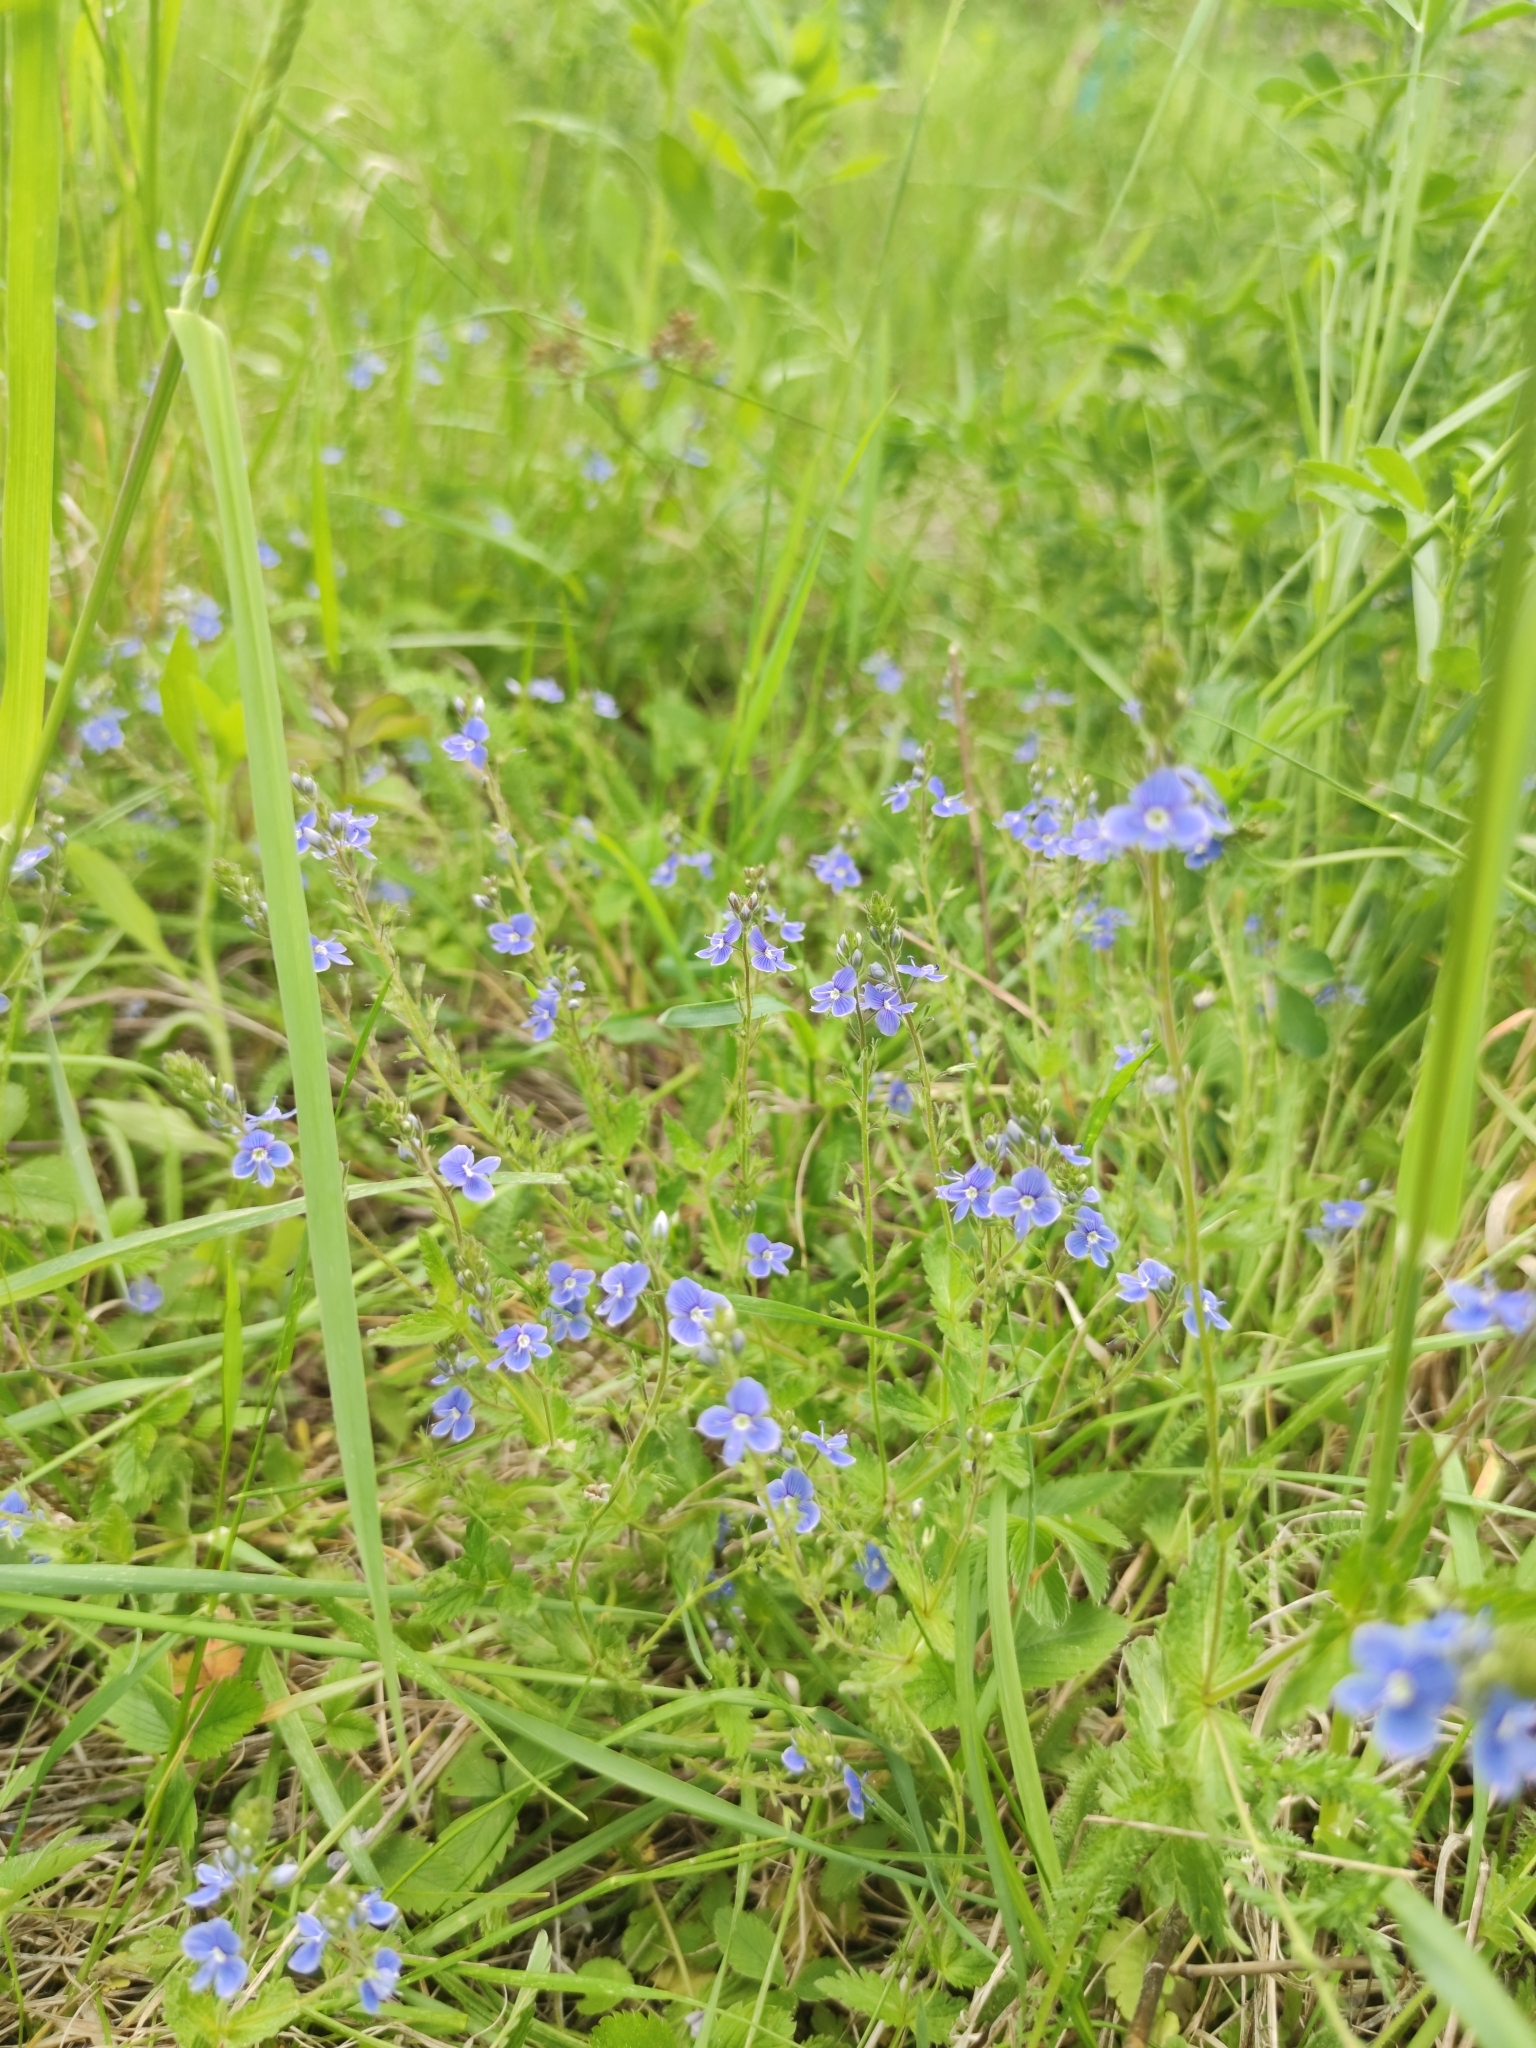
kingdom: Plantae
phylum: Tracheophyta
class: Magnoliopsida
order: Lamiales
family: Plantaginaceae
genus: Veronica
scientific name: Veronica chamaedrys
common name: Germander speedwell
